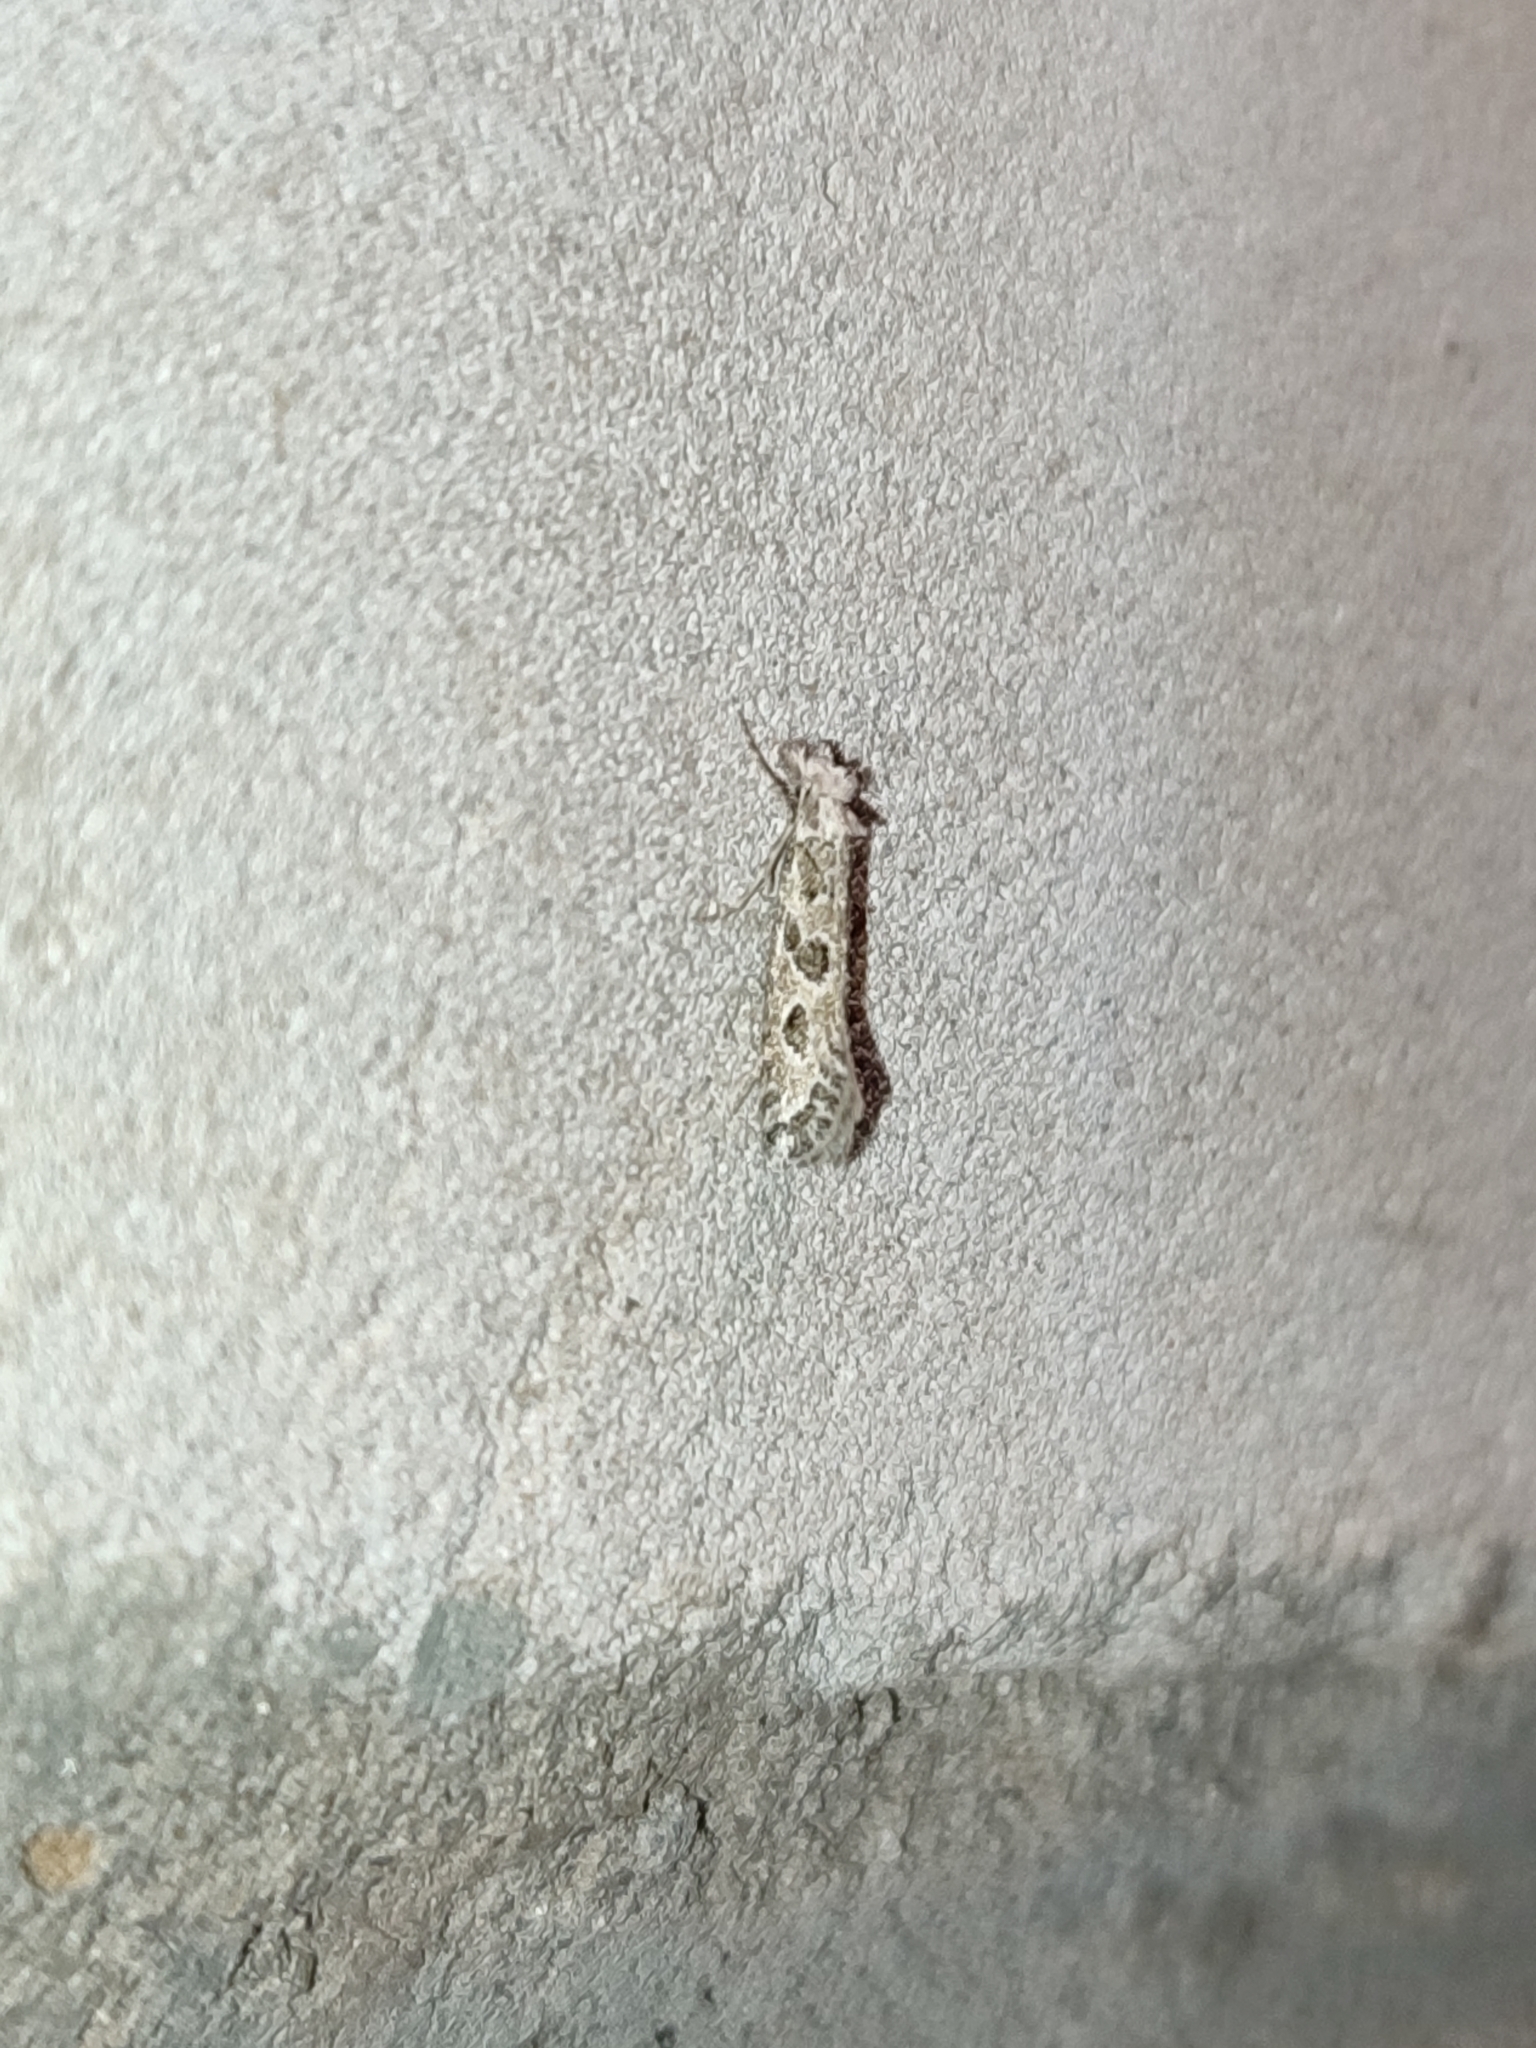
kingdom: Animalia
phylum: Arthropoda
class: Insecta
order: Lepidoptera
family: Tineidae
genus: Ateliotum
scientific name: Ateliotum hungaricellum
